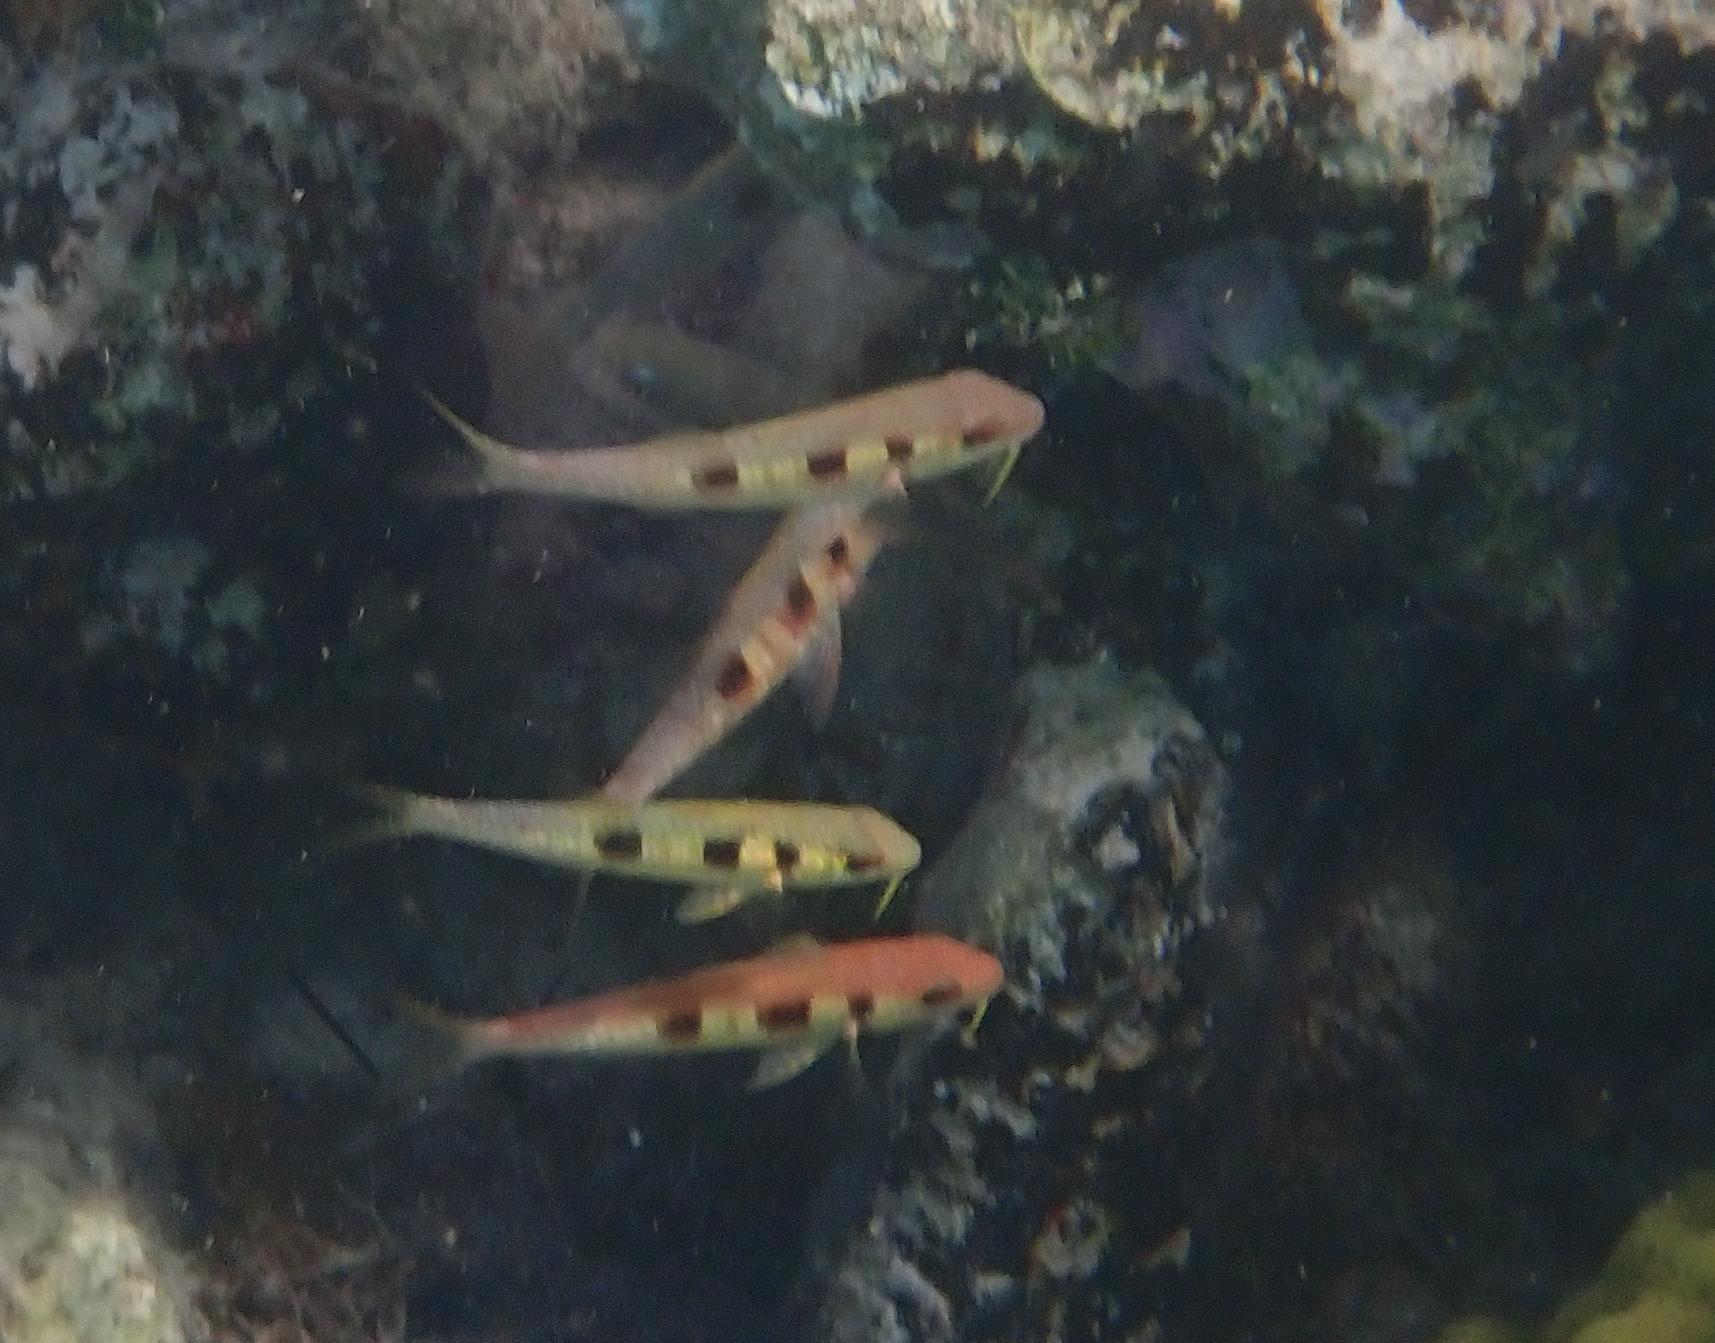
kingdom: Animalia
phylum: Chordata
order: Perciformes
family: Mullidae
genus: Pseudupeneus
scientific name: Pseudupeneus maculatus
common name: Spotted goatfish
